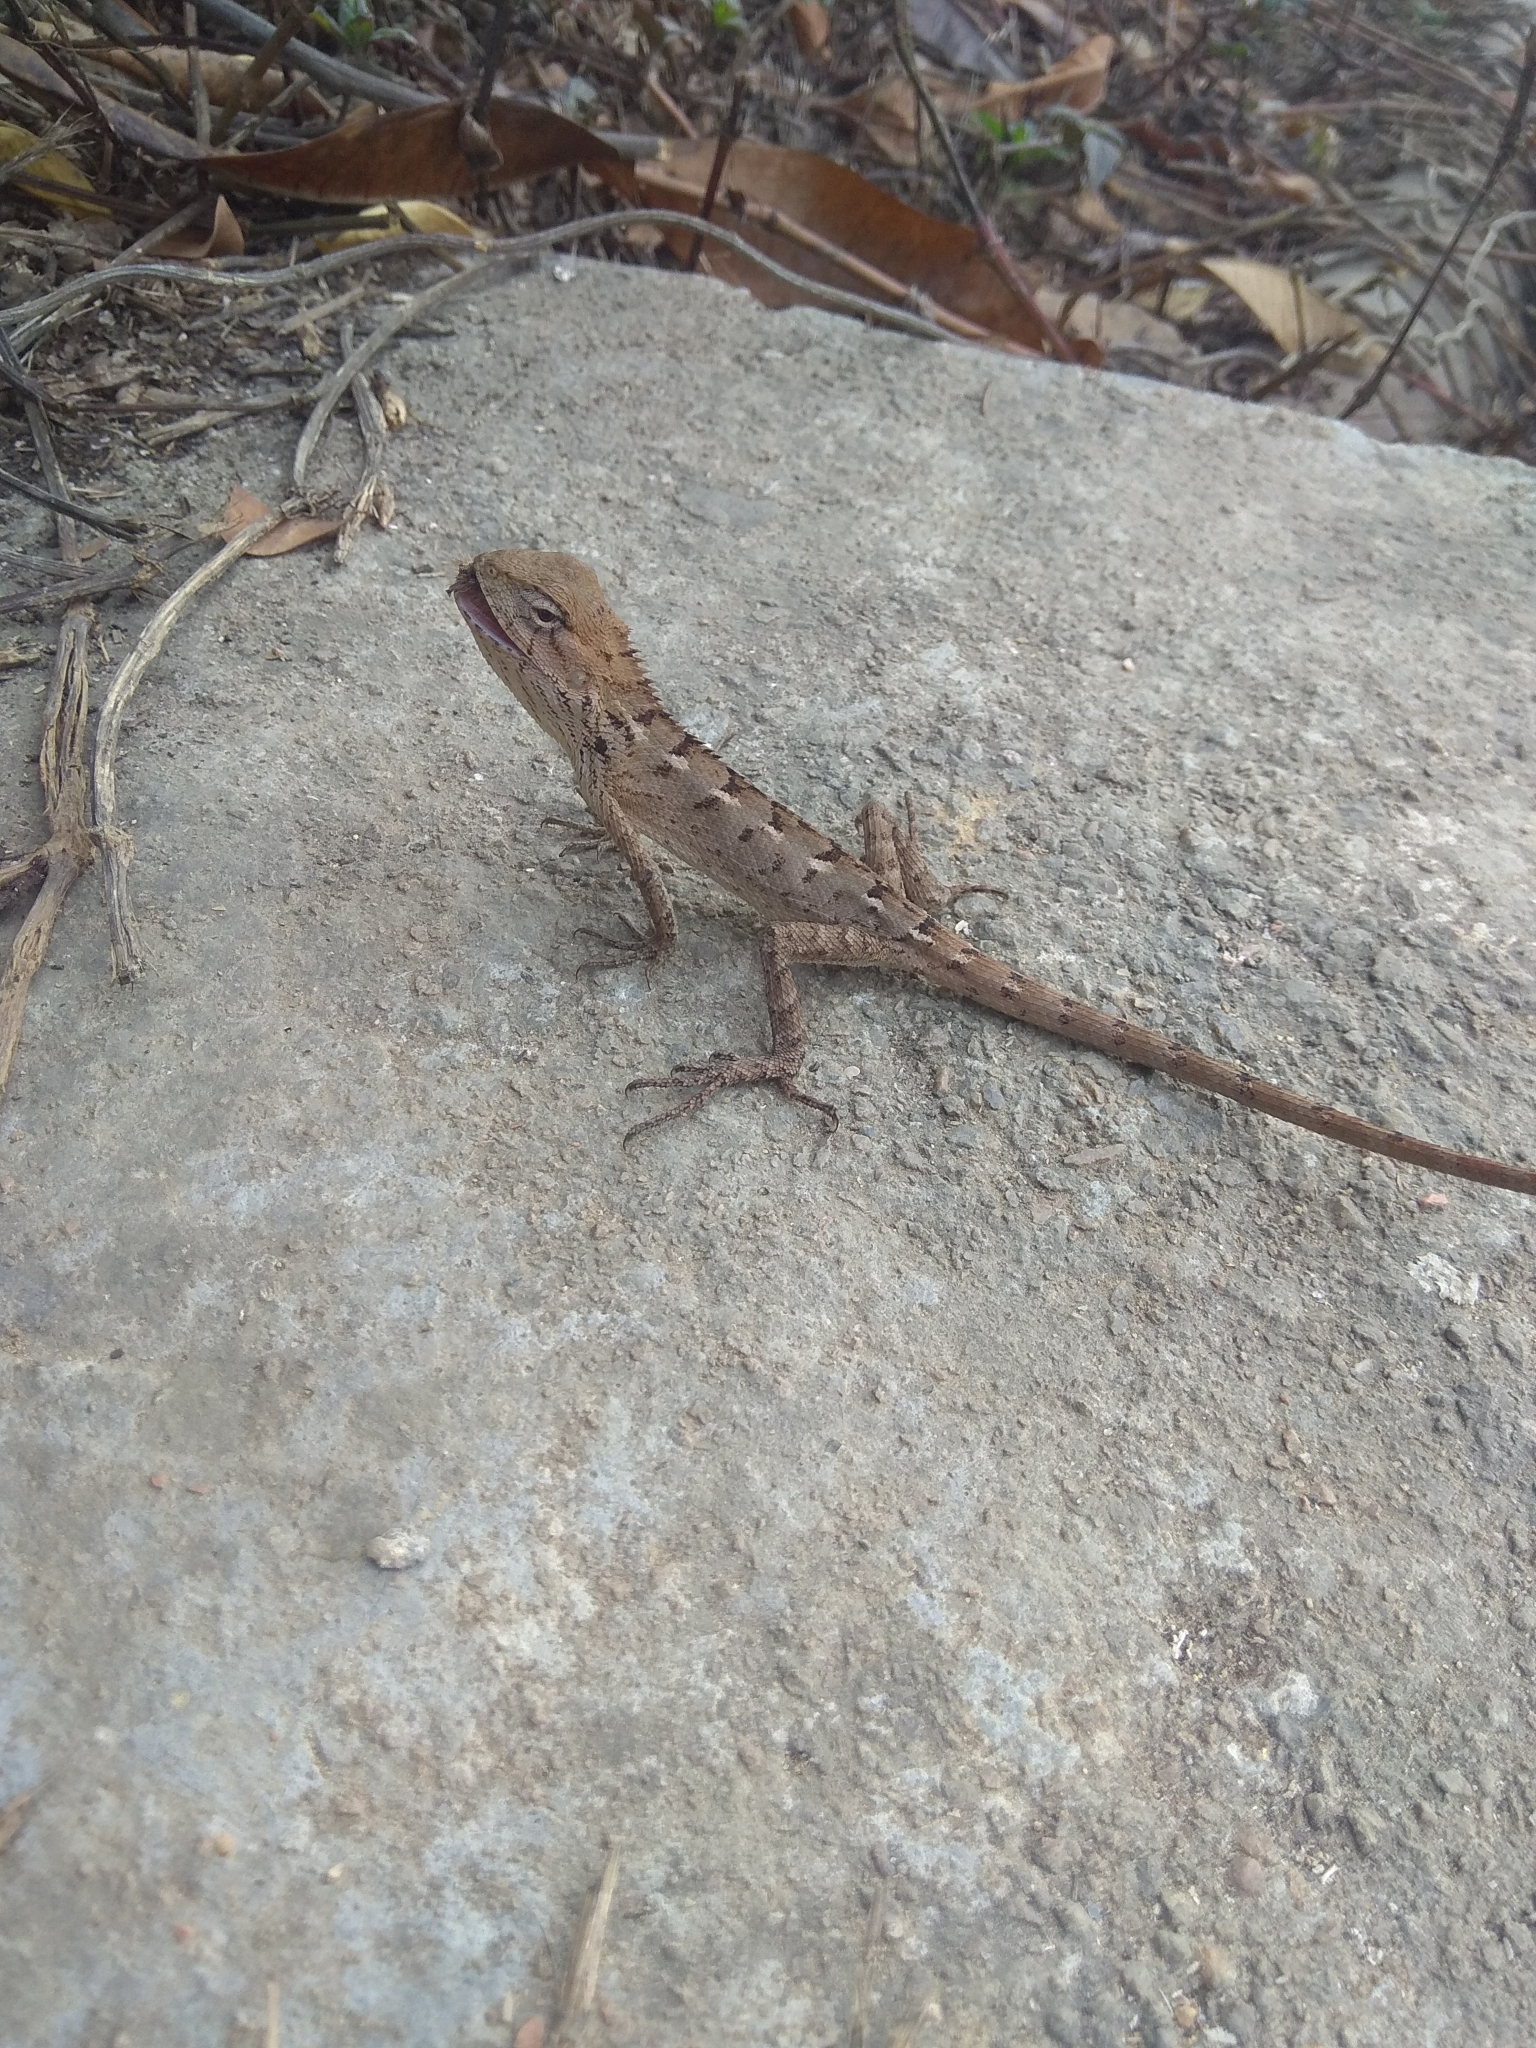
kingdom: Animalia
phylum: Chordata
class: Squamata
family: Agamidae
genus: Calotes
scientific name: Calotes versicolor
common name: Oriental garden lizard
